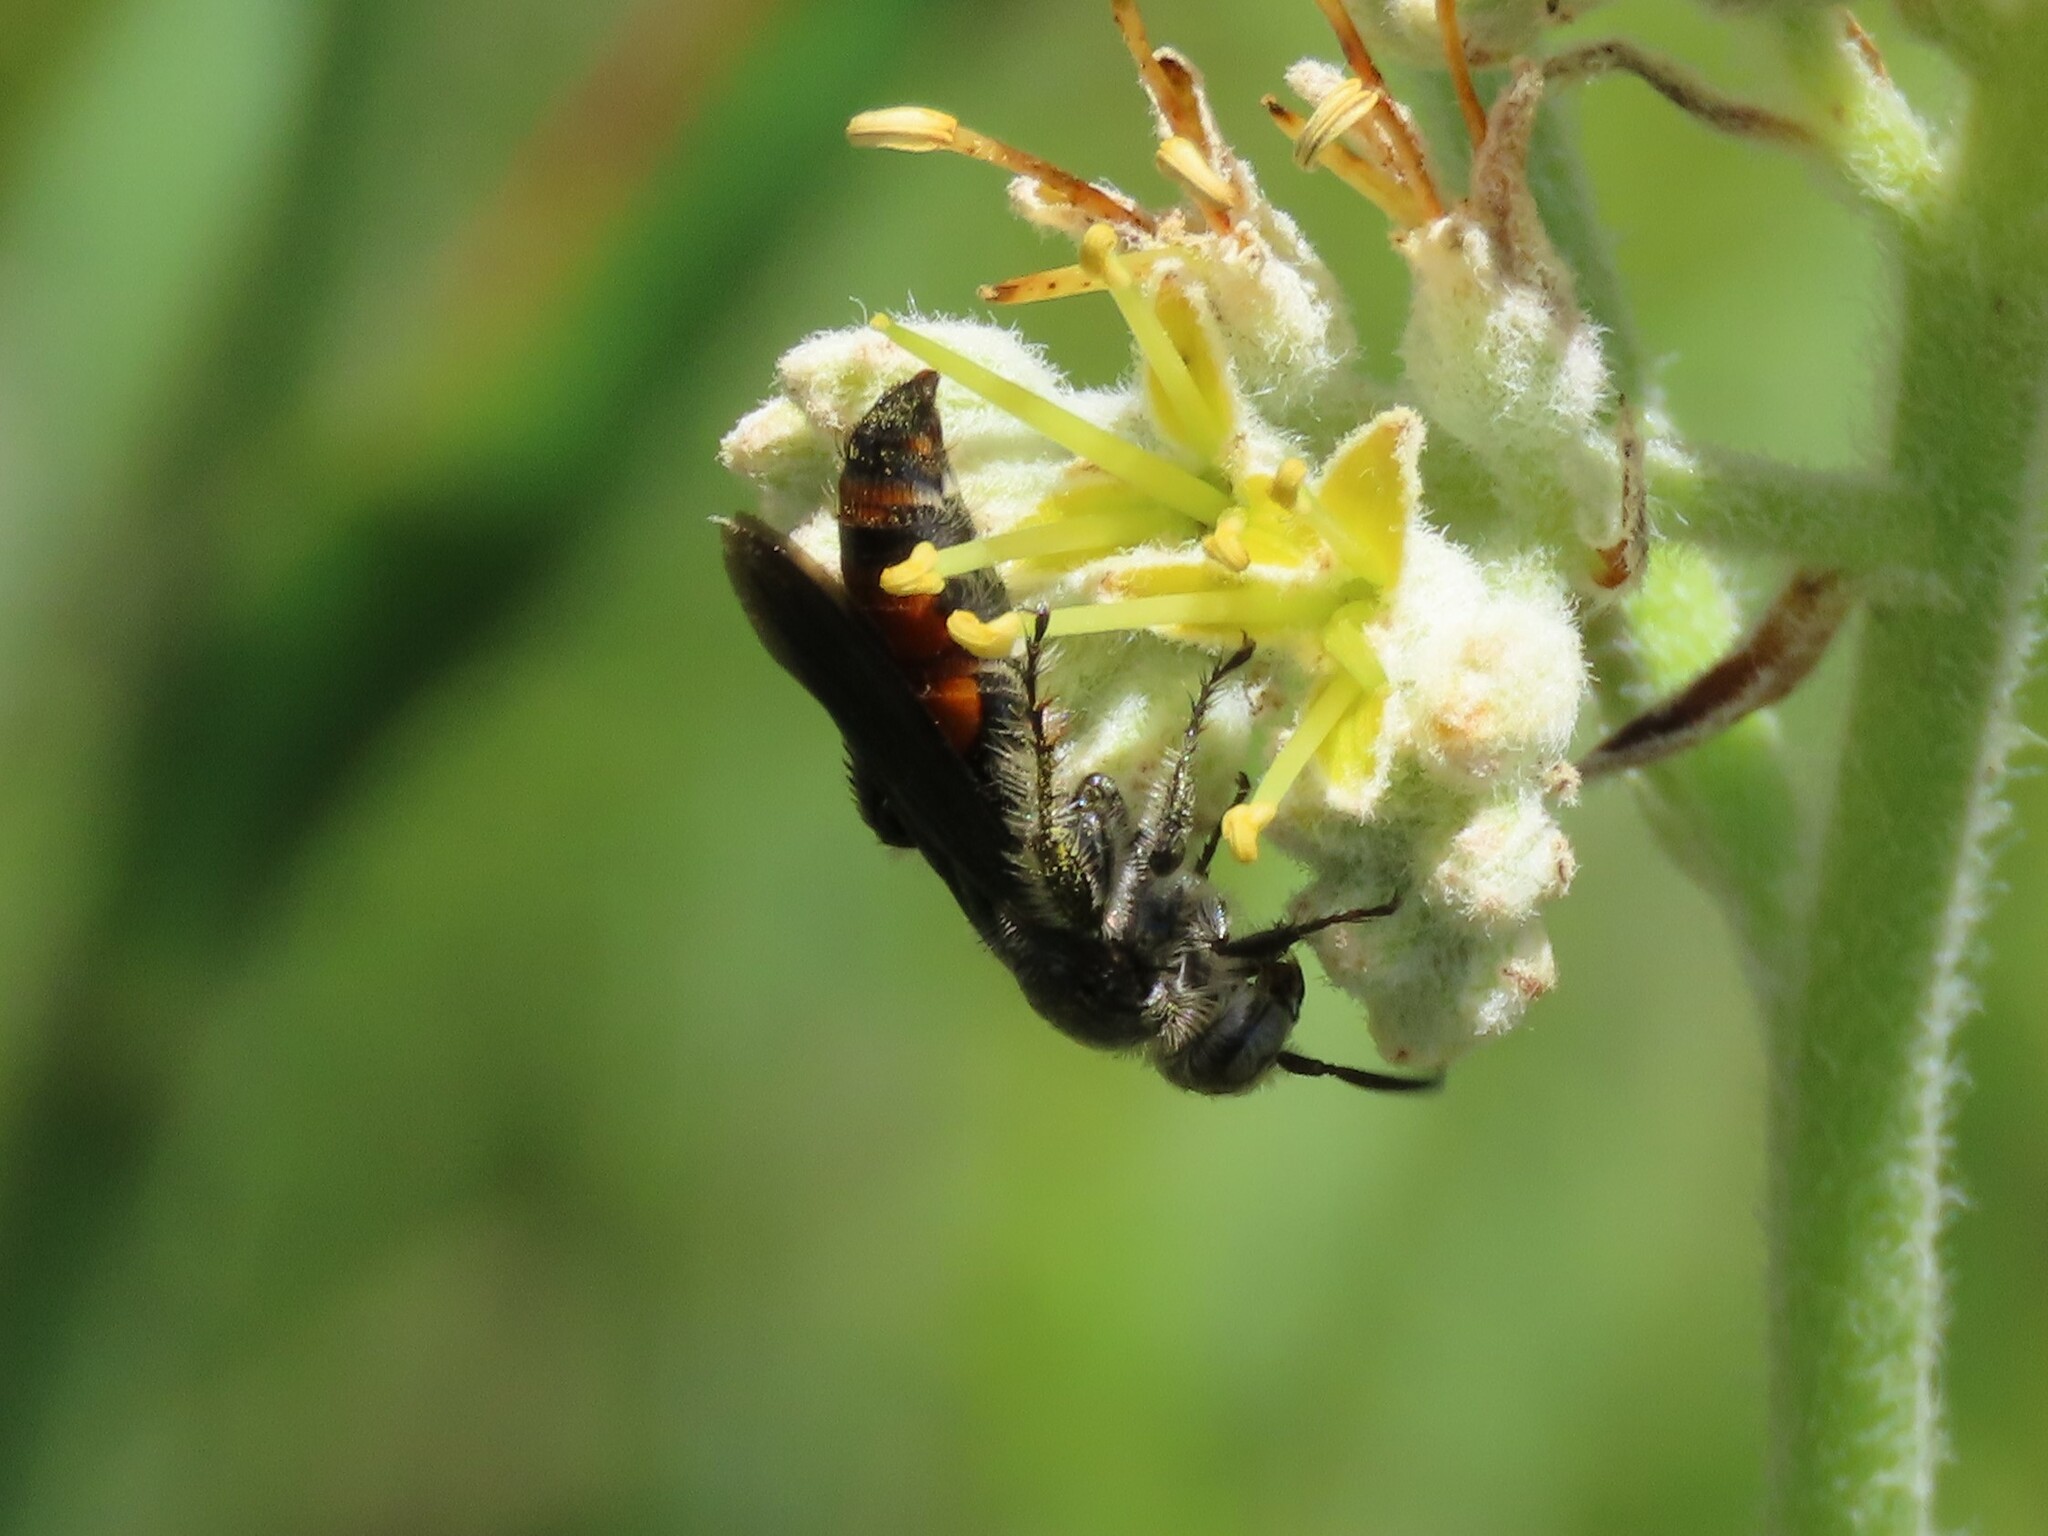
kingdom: Animalia
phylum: Arthropoda
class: Insecta
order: Hymenoptera
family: Scoliidae
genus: Dielis
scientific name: Dielis dorsata
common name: Scoliid wasp
